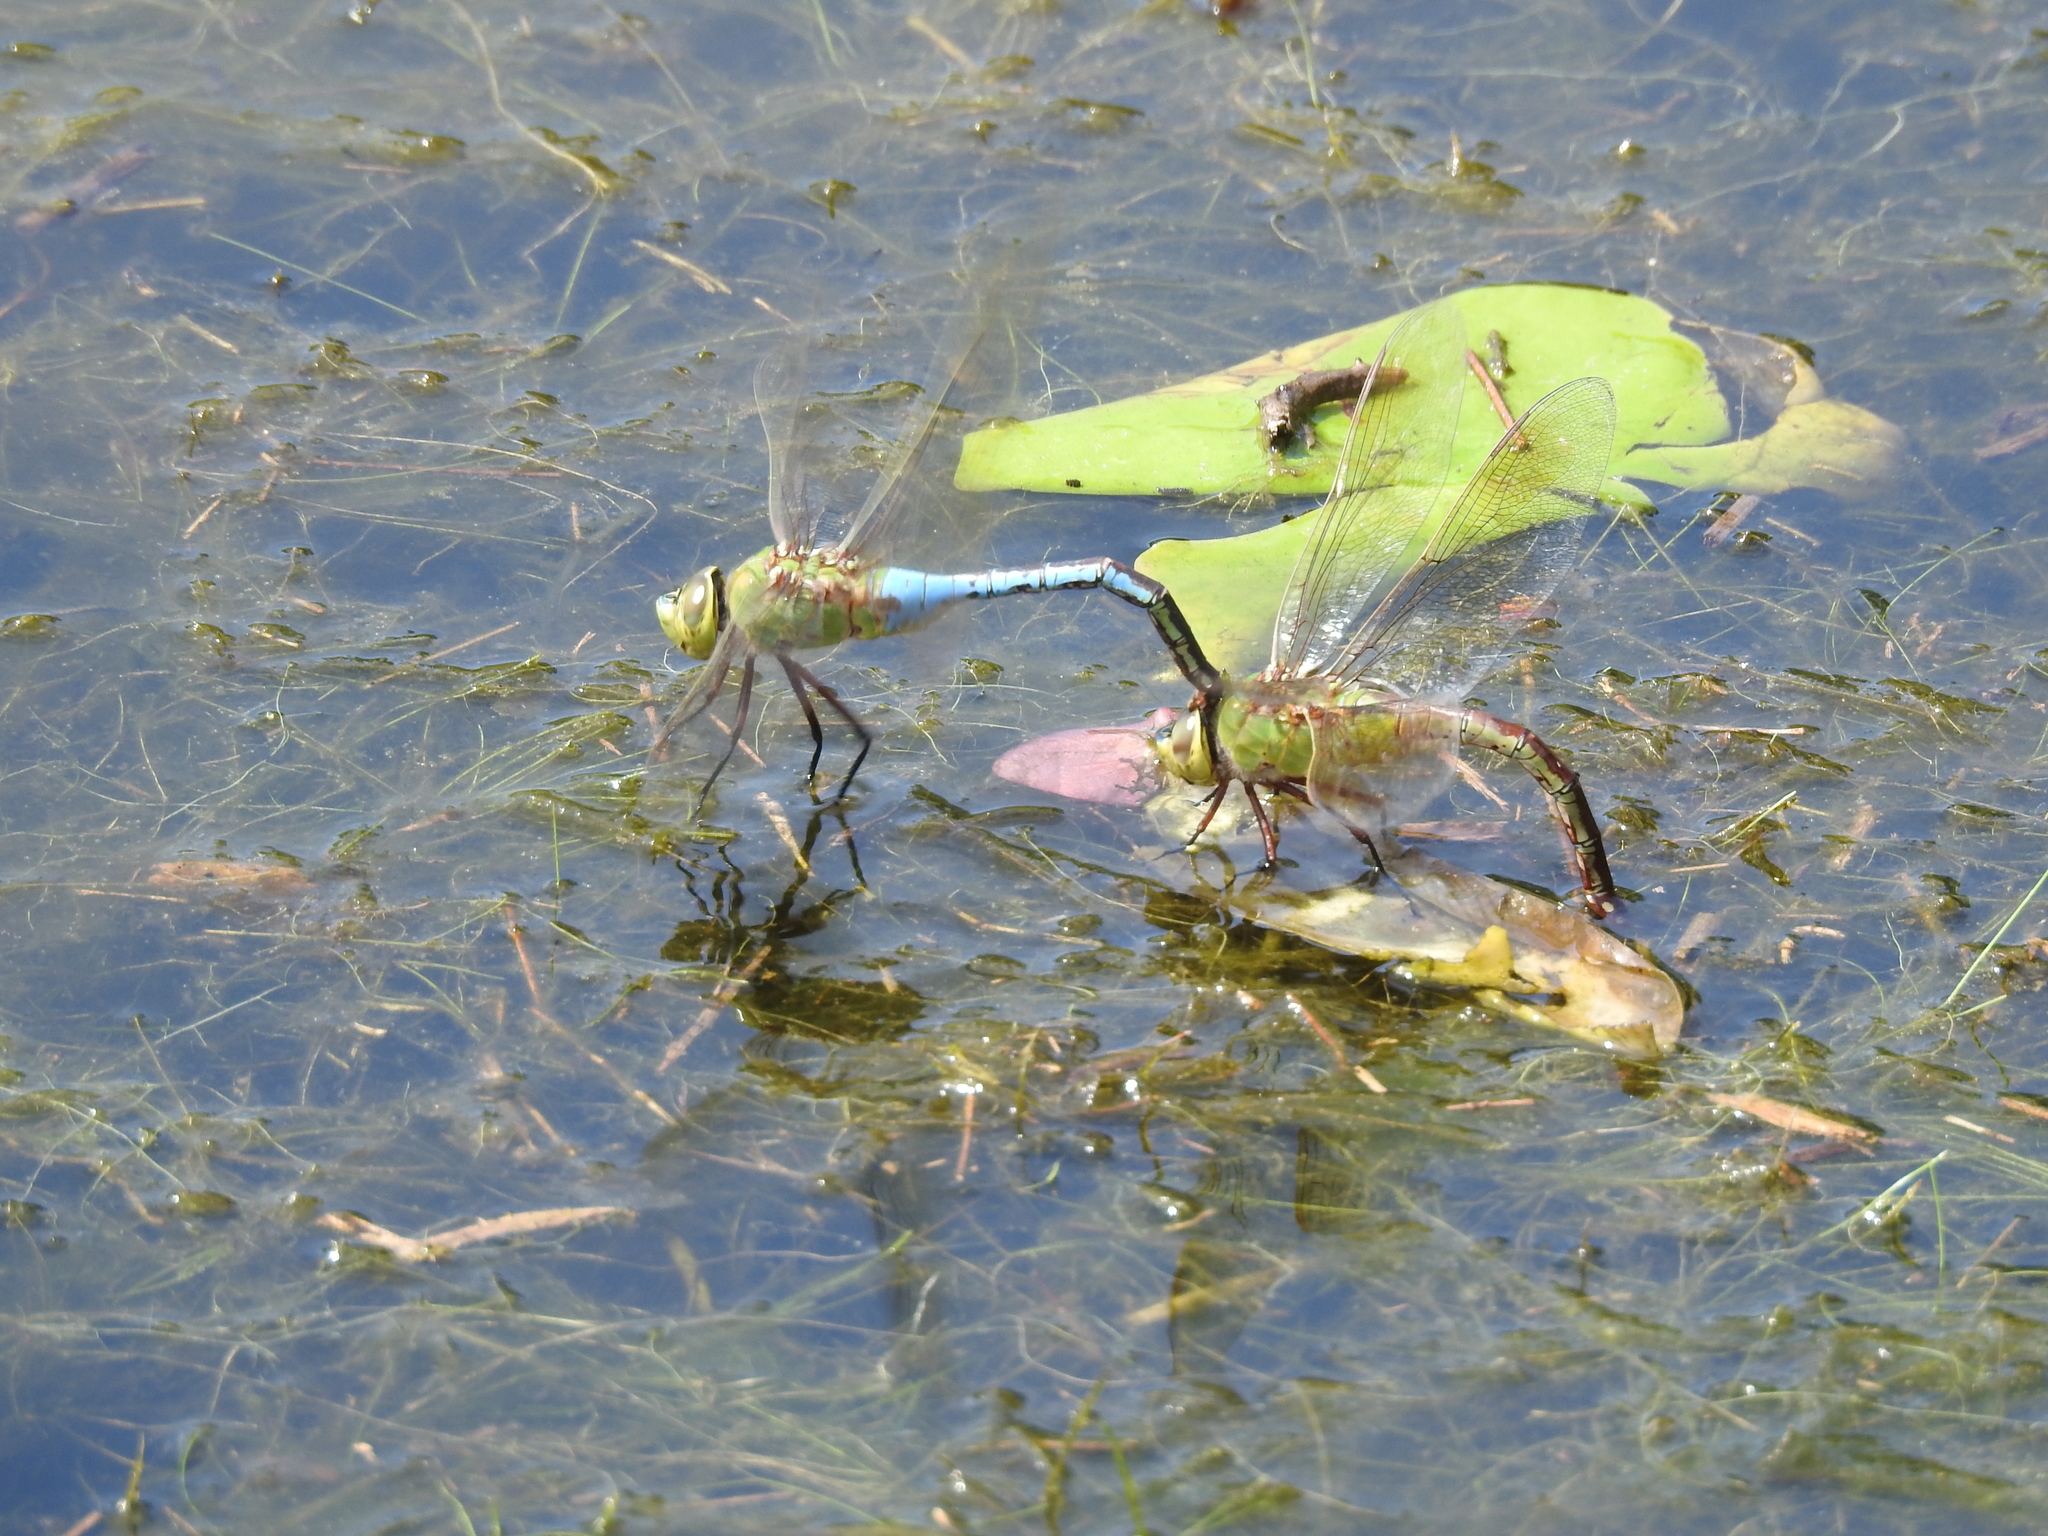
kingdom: Animalia
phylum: Arthropoda
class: Insecta
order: Odonata
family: Aeshnidae
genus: Anax
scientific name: Anax junius
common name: Common green darner
